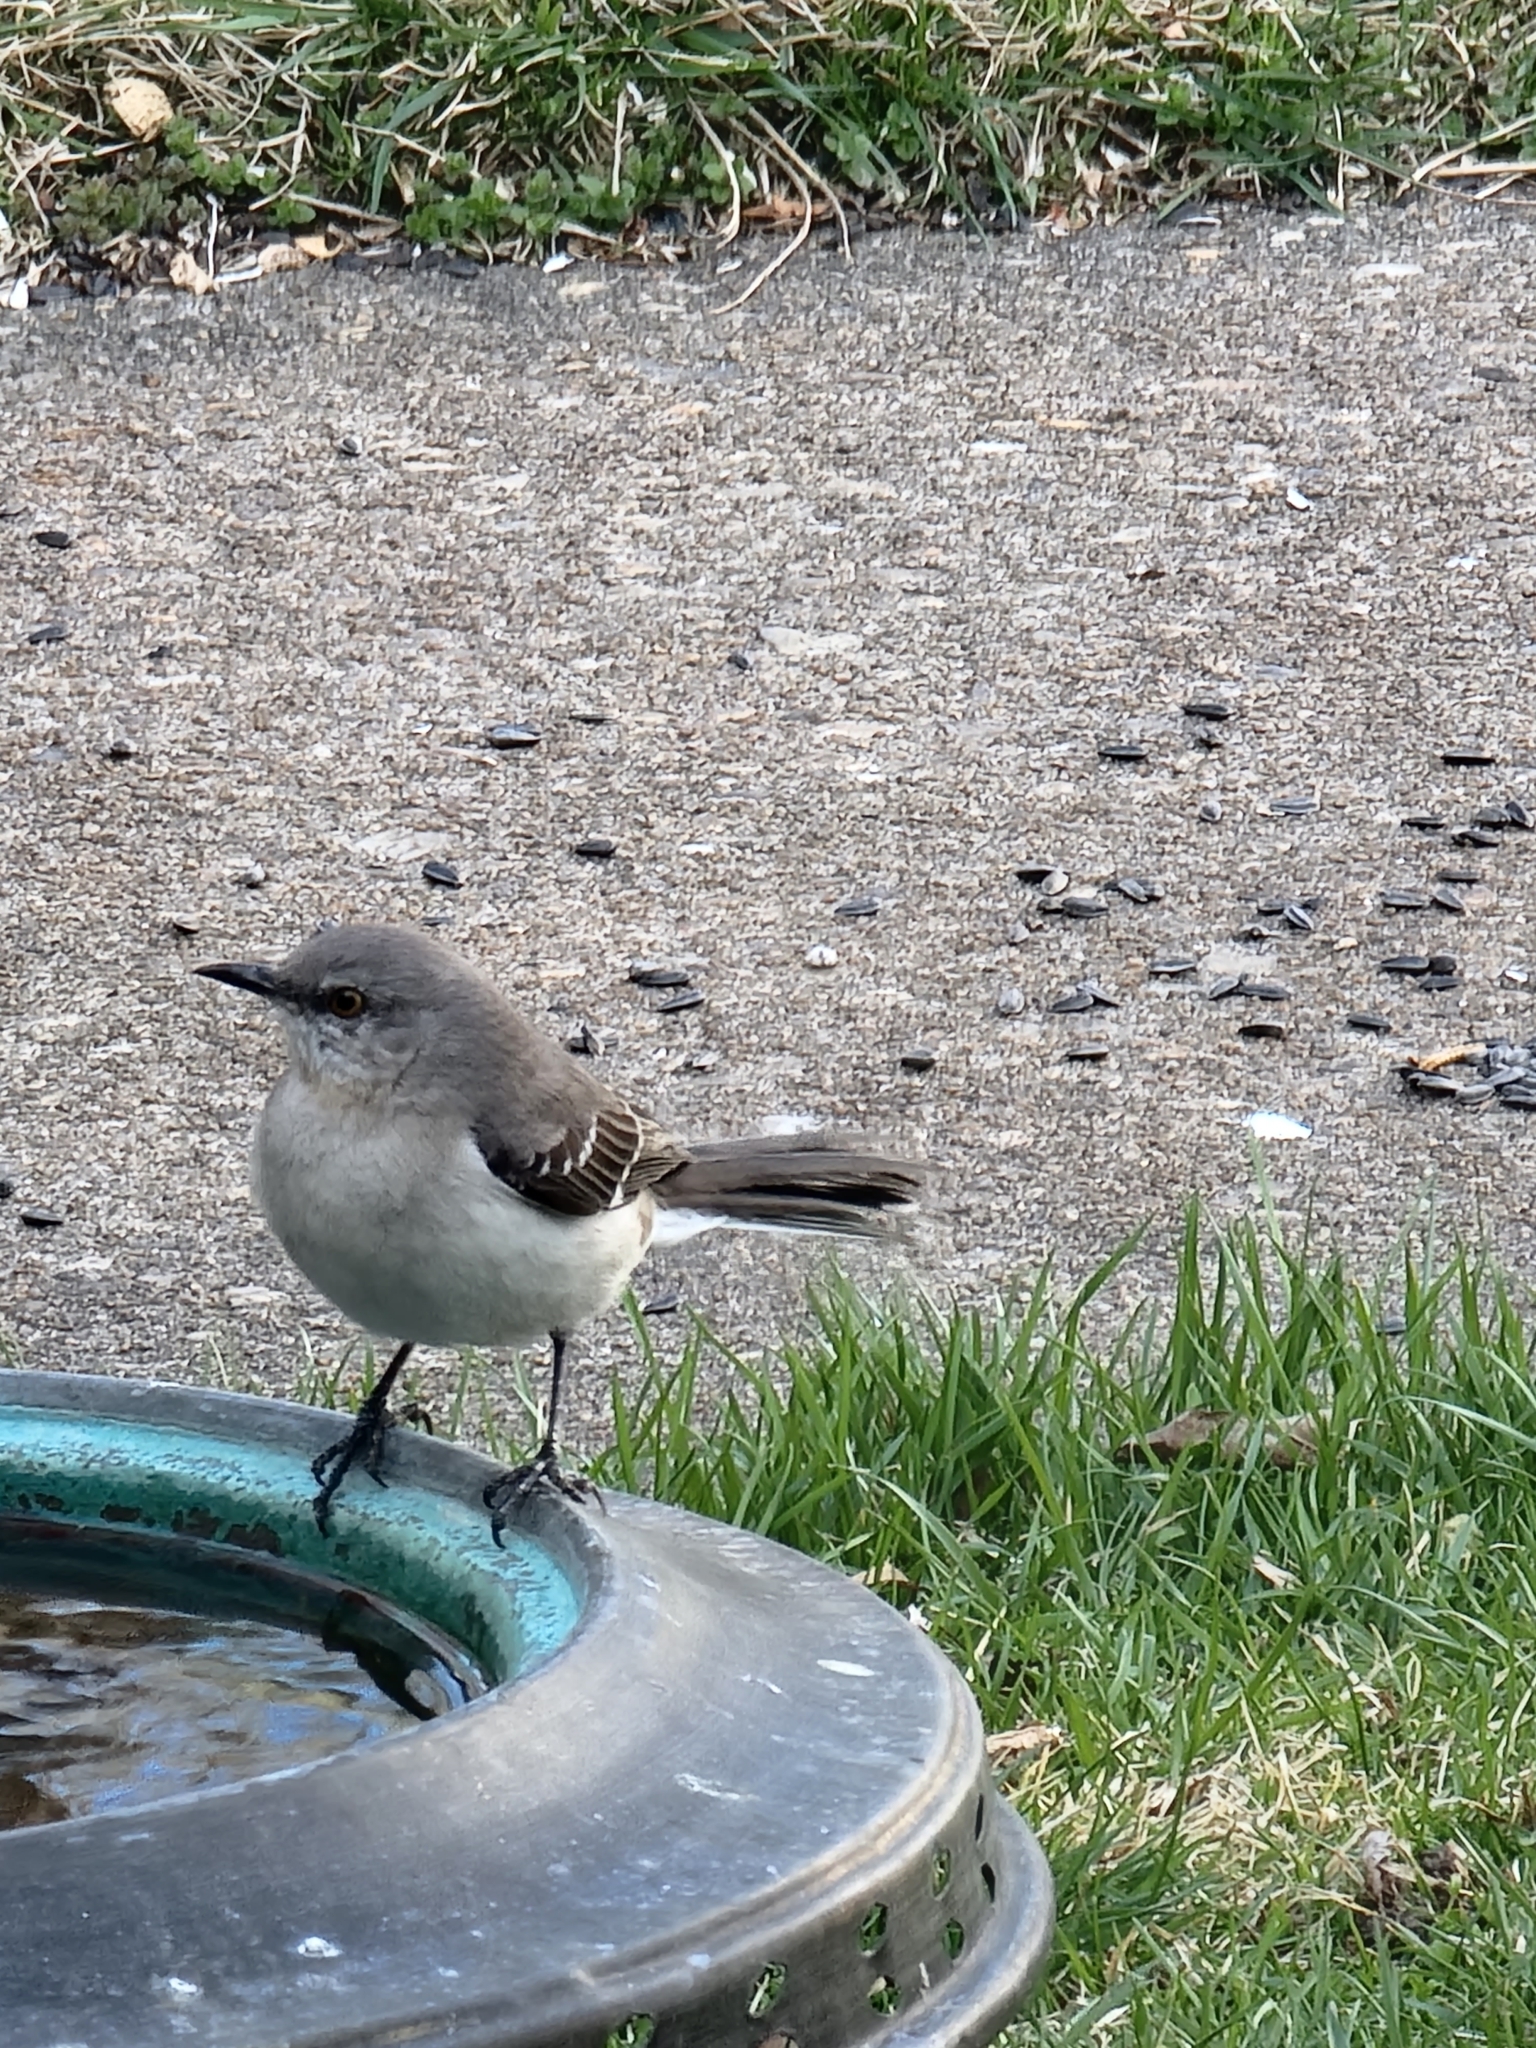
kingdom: Animalia
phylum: Chordata
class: Aves
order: Passeriformes
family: Mimidae
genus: Mimus
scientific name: Mimus polyglottos
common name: Northern mockingbird
